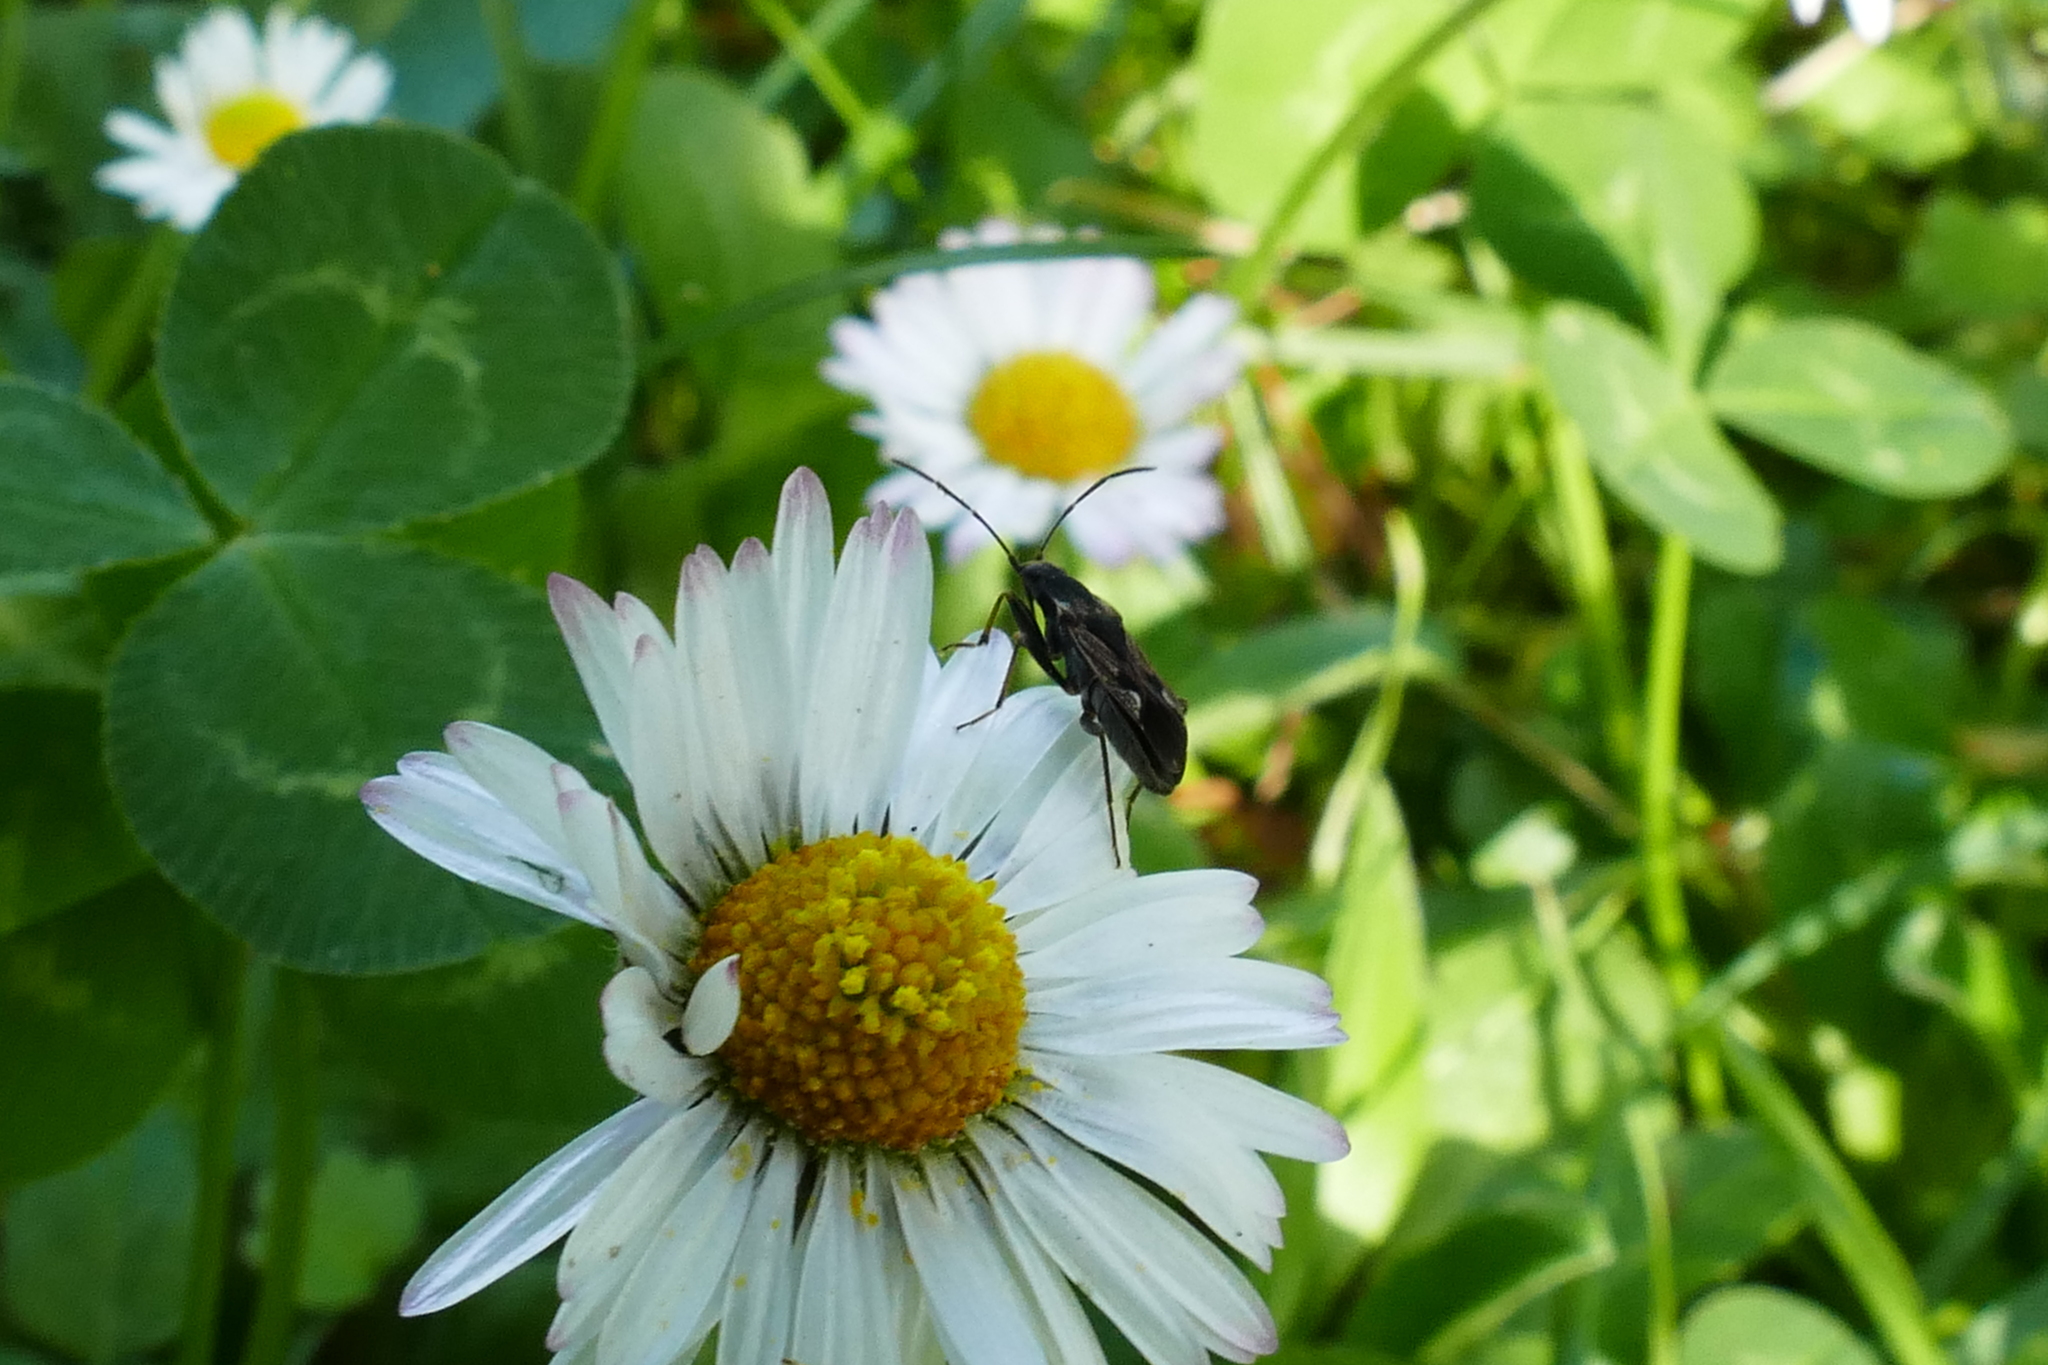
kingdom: Animalia
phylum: Arthropoda
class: Insecta
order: Hemiptera
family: Rhyparochromidae
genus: Rhyparochromus
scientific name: Rhyparochromus vulgaris
